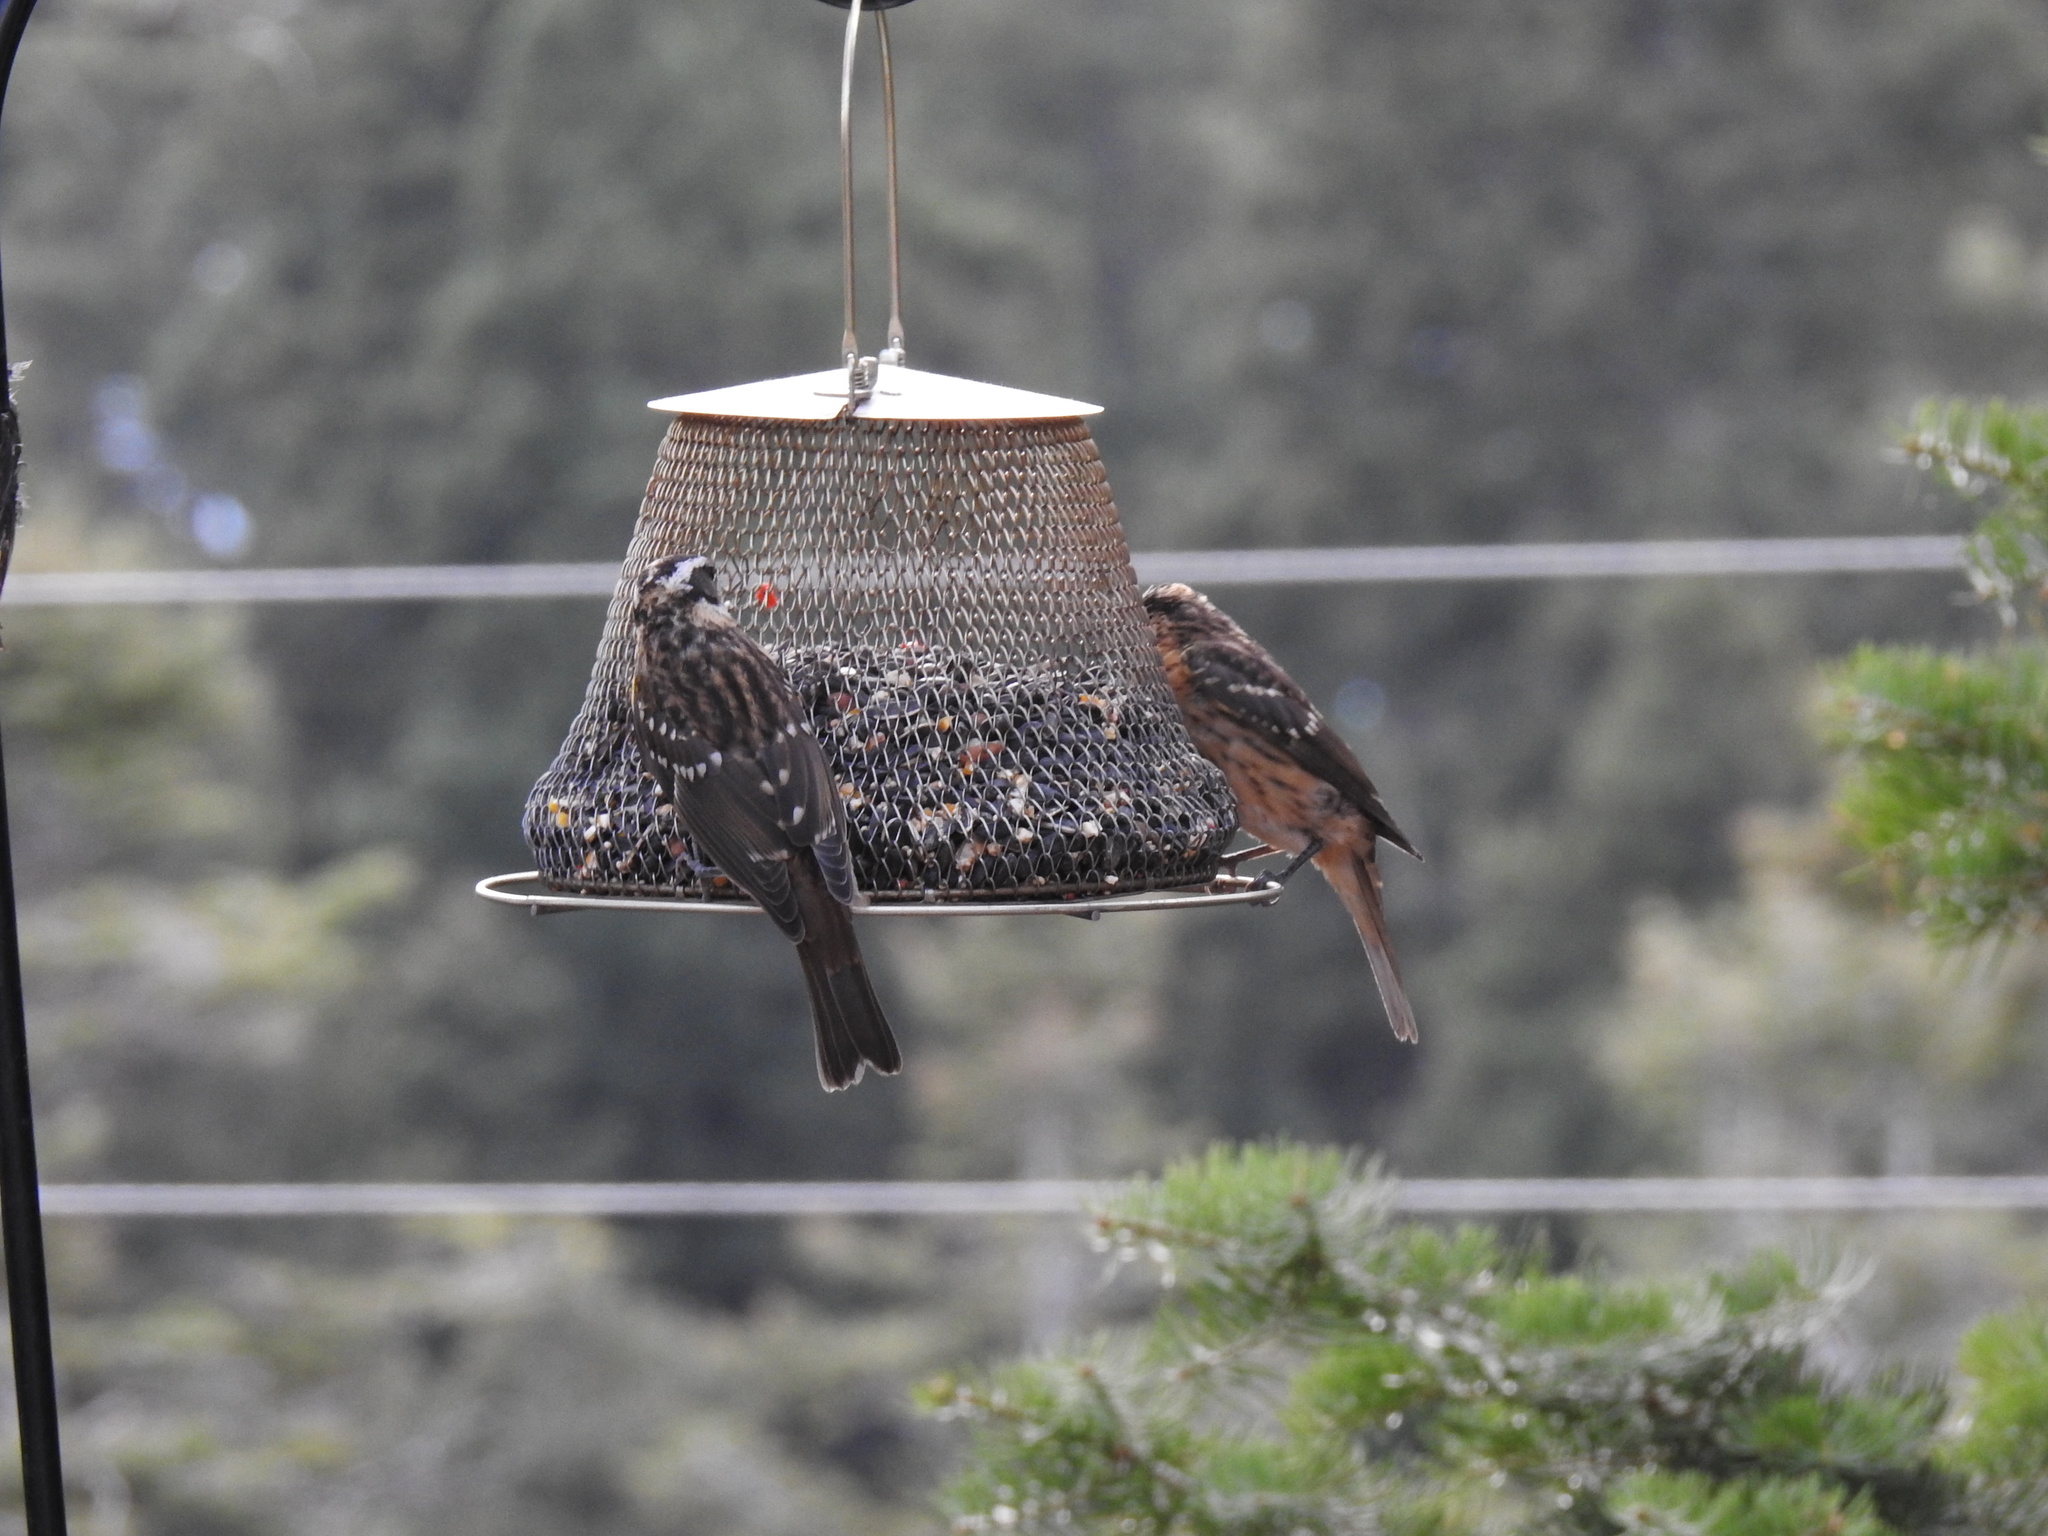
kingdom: Animalia
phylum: Chordata
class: Aves
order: Passeriformes
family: Cardinalidae
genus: Pheucticus
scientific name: Pheucticus melanocephalus
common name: Black-headed grosbeak
